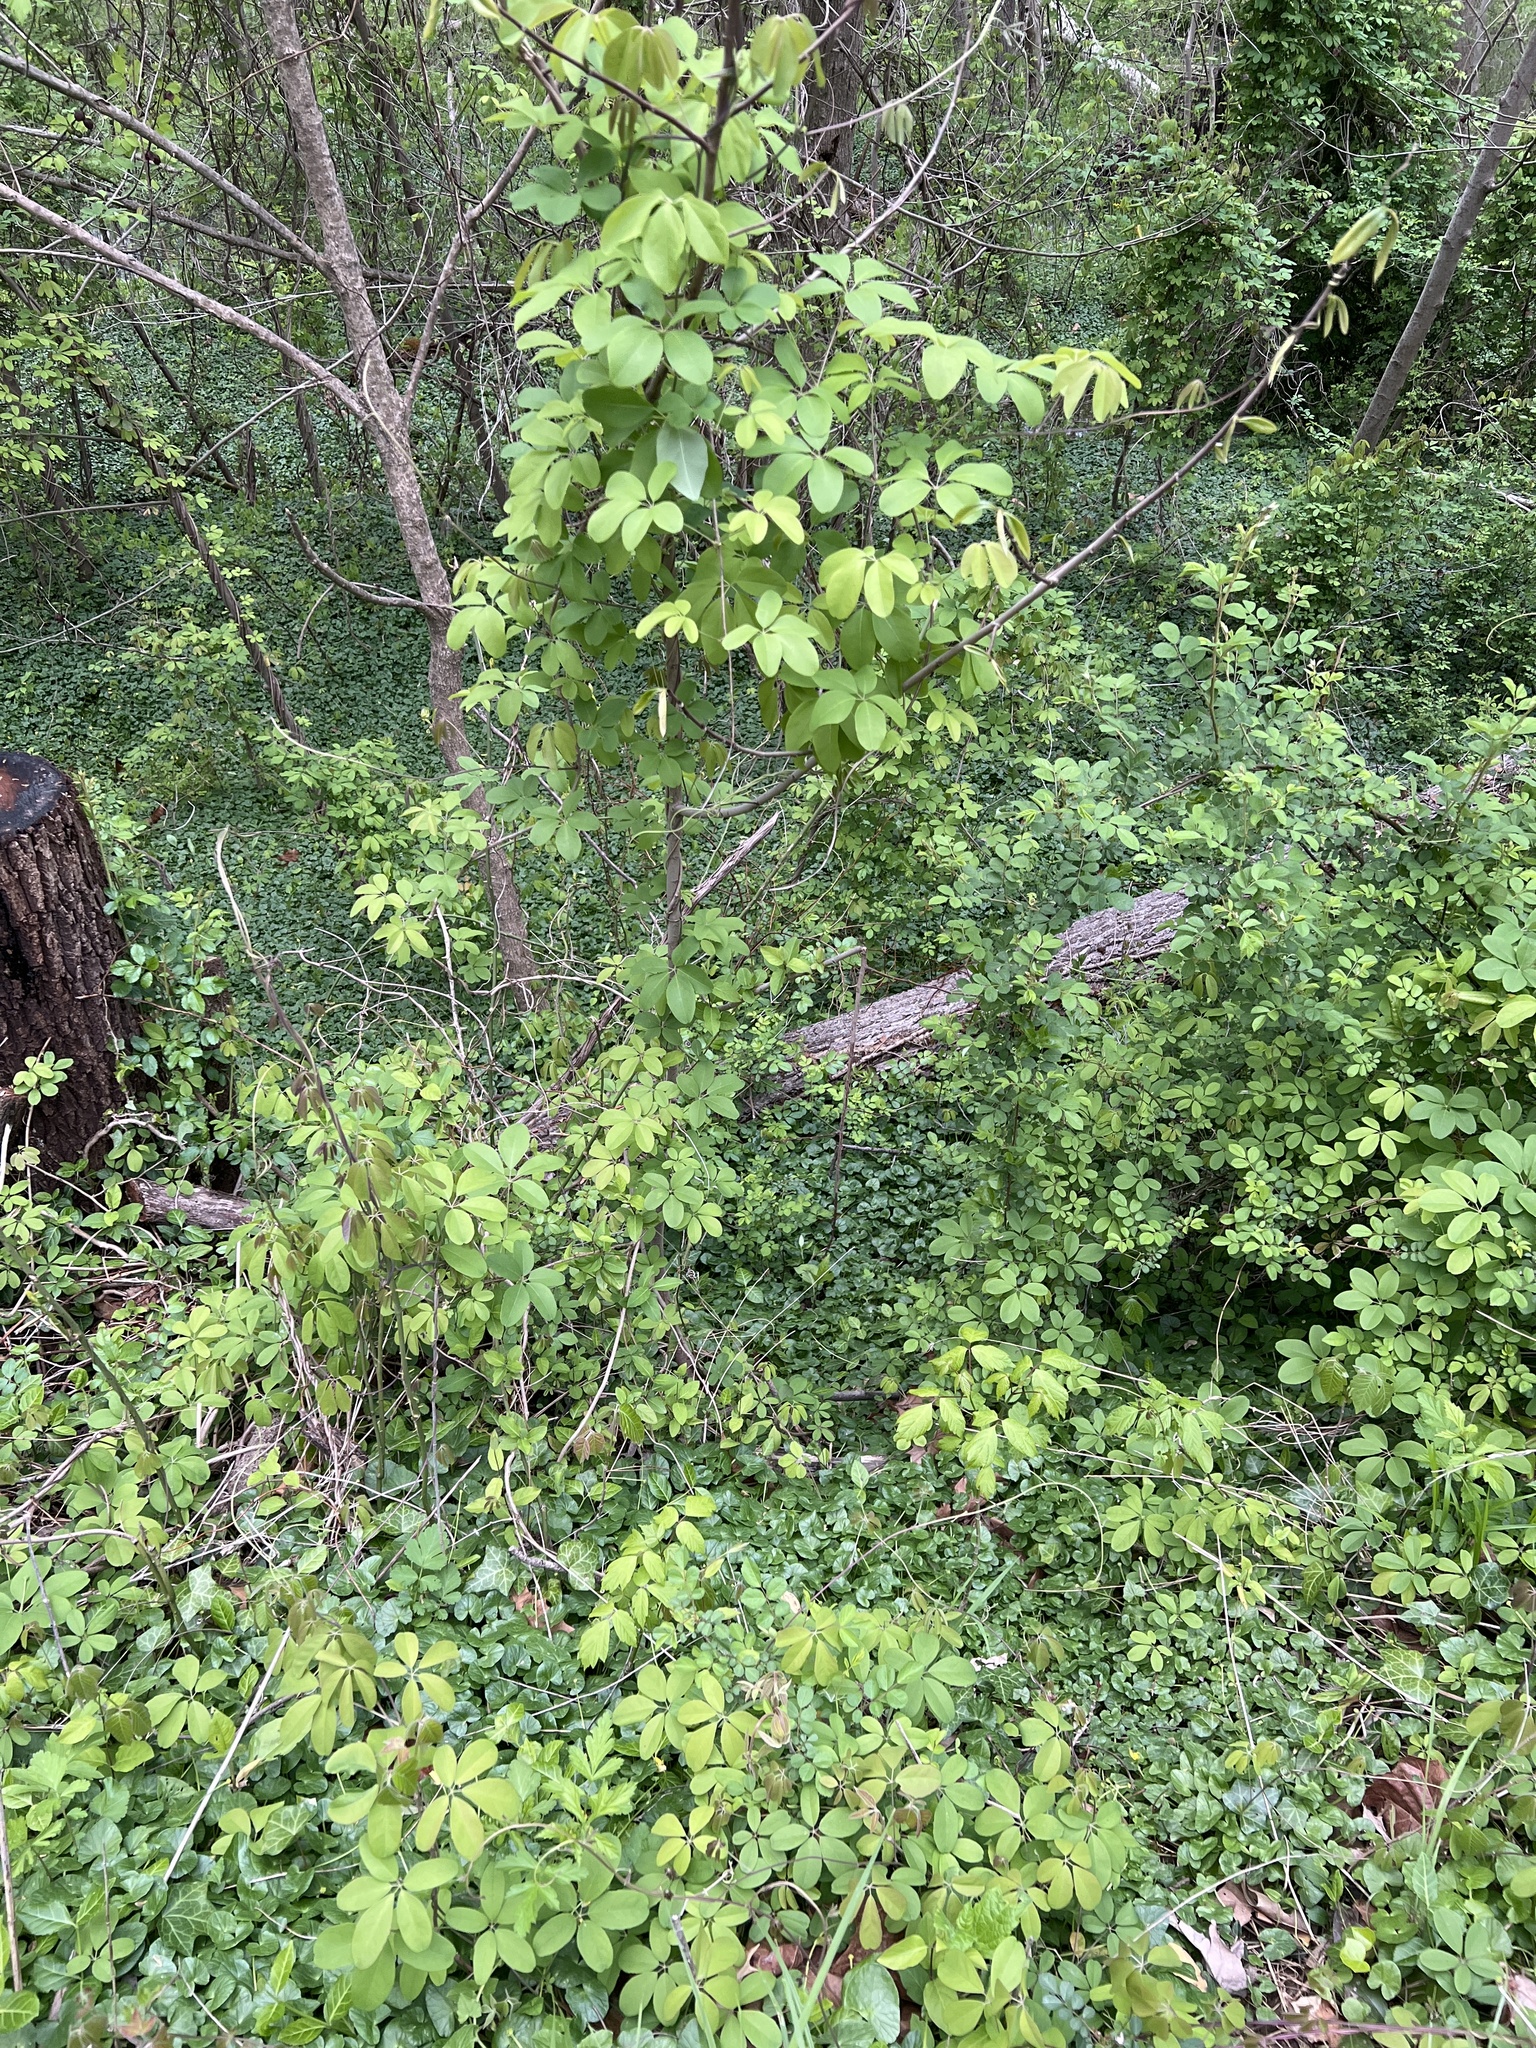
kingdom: Plantae
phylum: Tracheophyta
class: Magnoliopsida
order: Ranunculales
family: Lardizabalaceae
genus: Akebia
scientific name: Akebia quinata
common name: Five-leaf akebia
